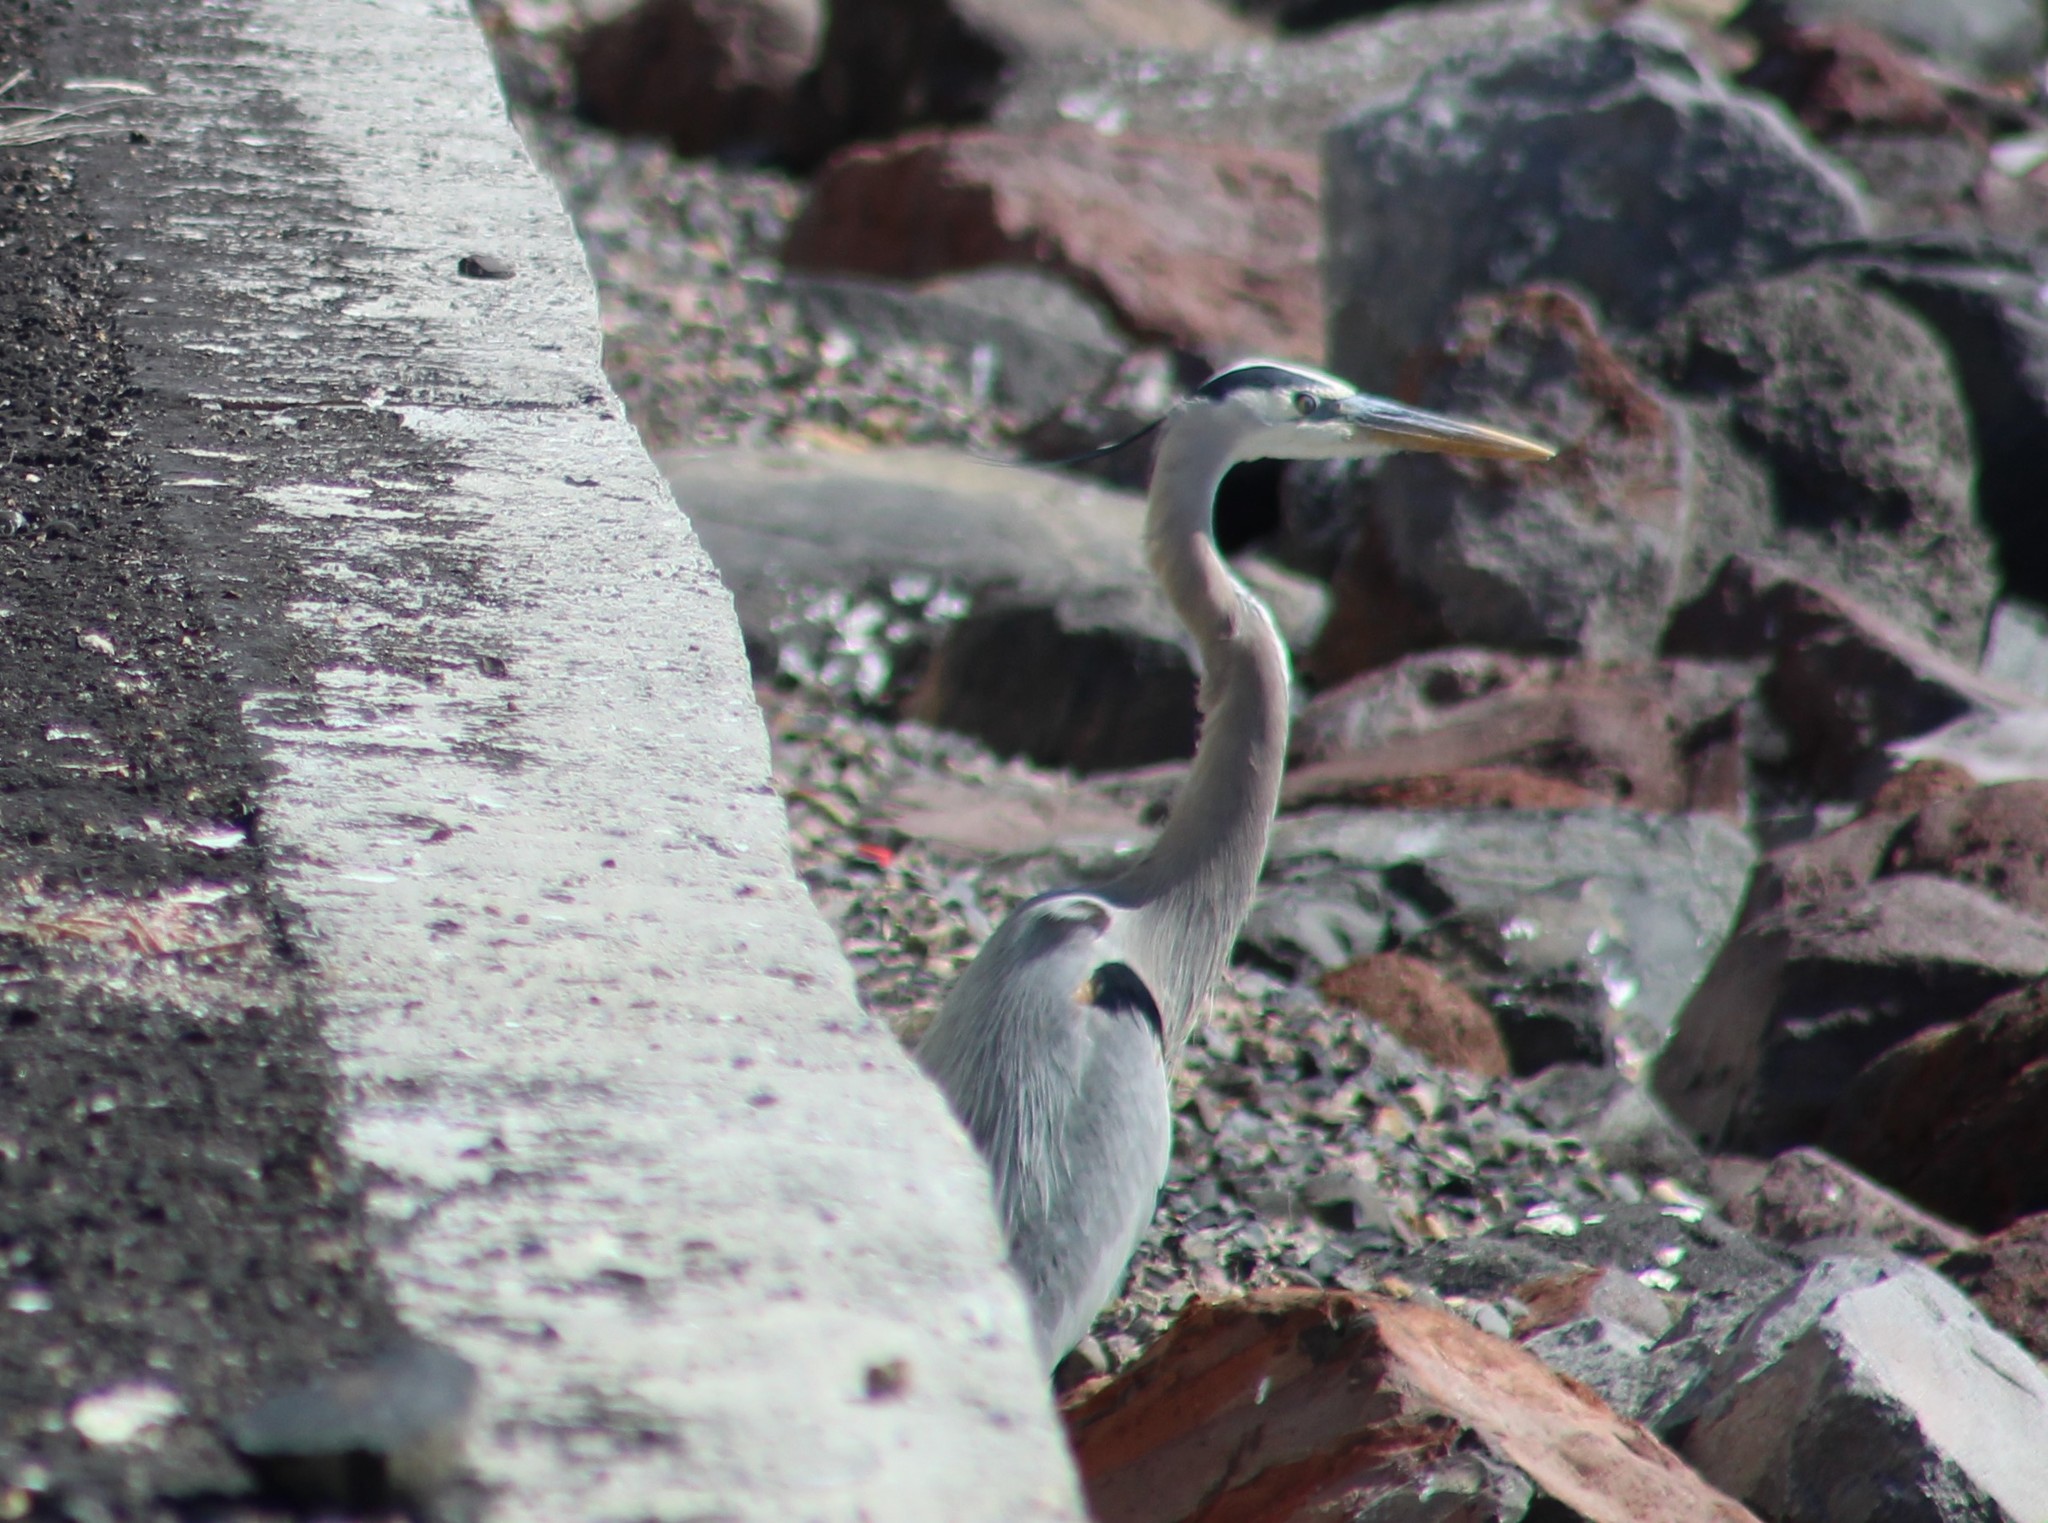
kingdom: Animalia
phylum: Chordata
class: Aves
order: Pelecaniformes
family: Ardeidae
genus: Ardea
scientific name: Ardea herodias
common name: Great blue heron
